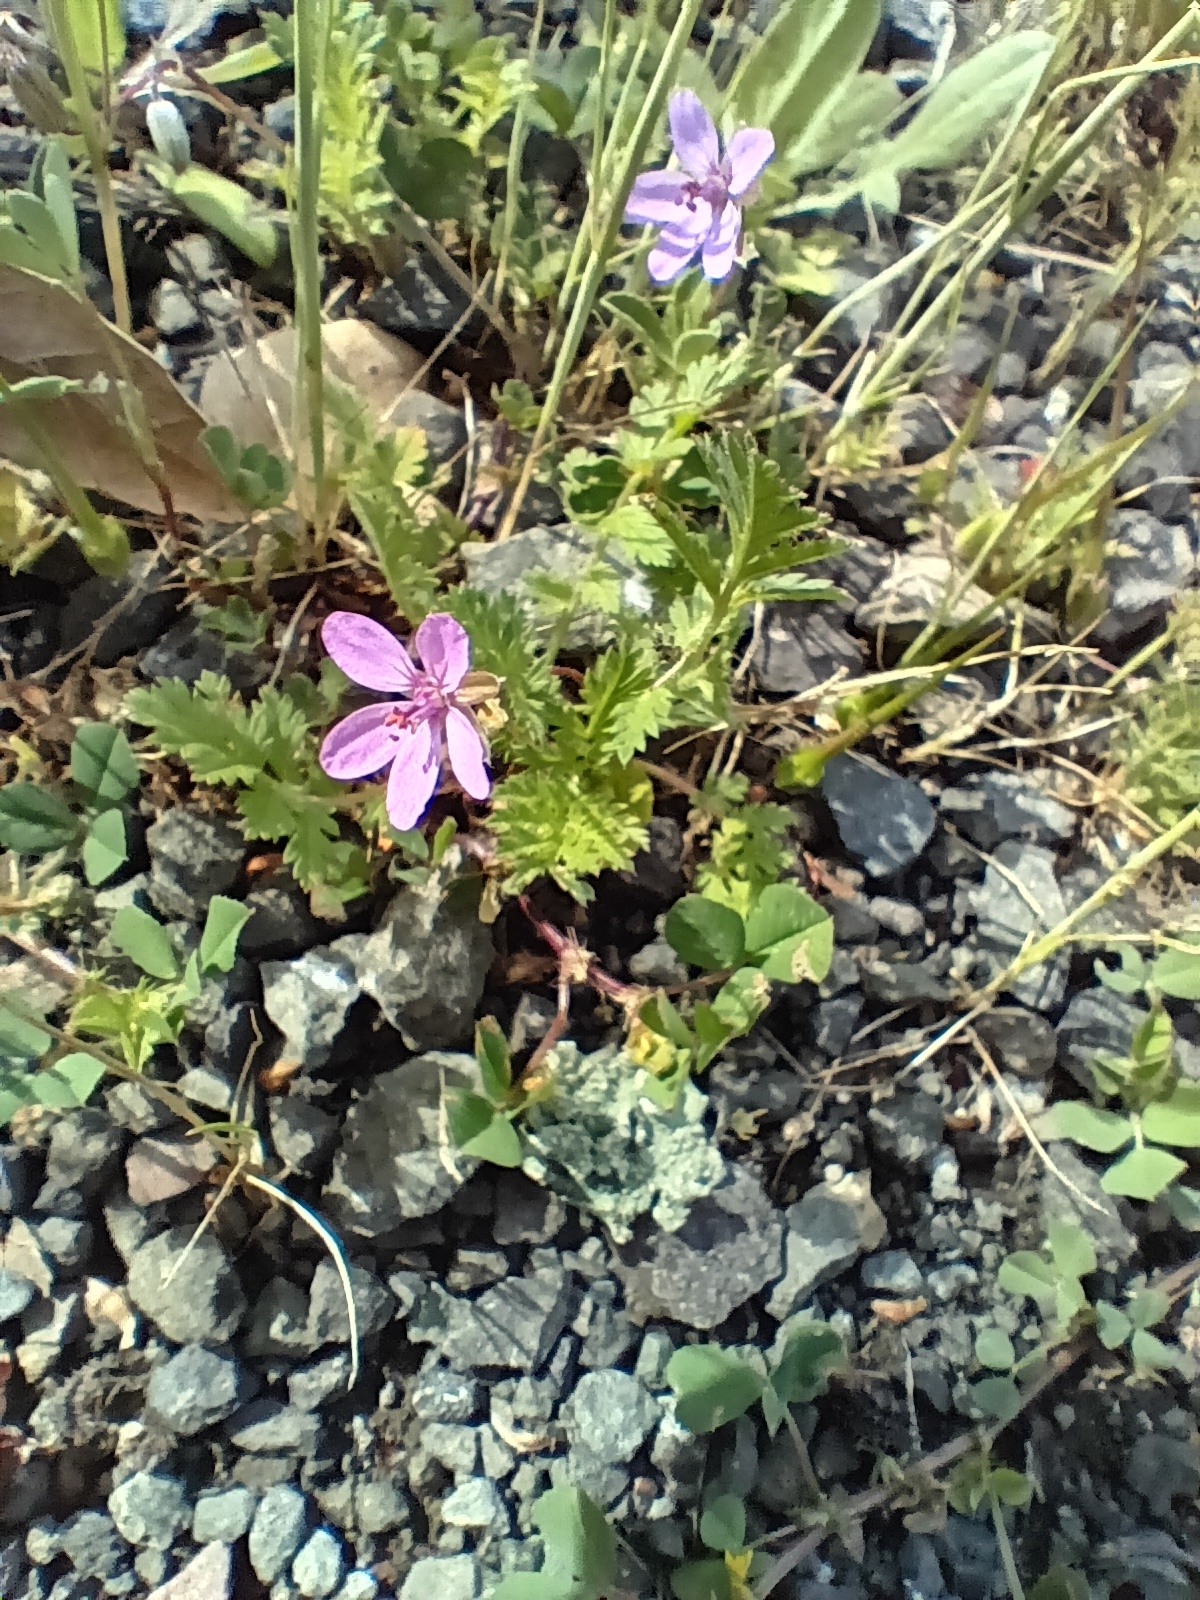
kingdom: Plantae
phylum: Tracheophyta
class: Magnoliopsida
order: Geraniales
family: Geraniaceae
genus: Erodium
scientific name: Erodium cicutarium
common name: Common stork's-bill
